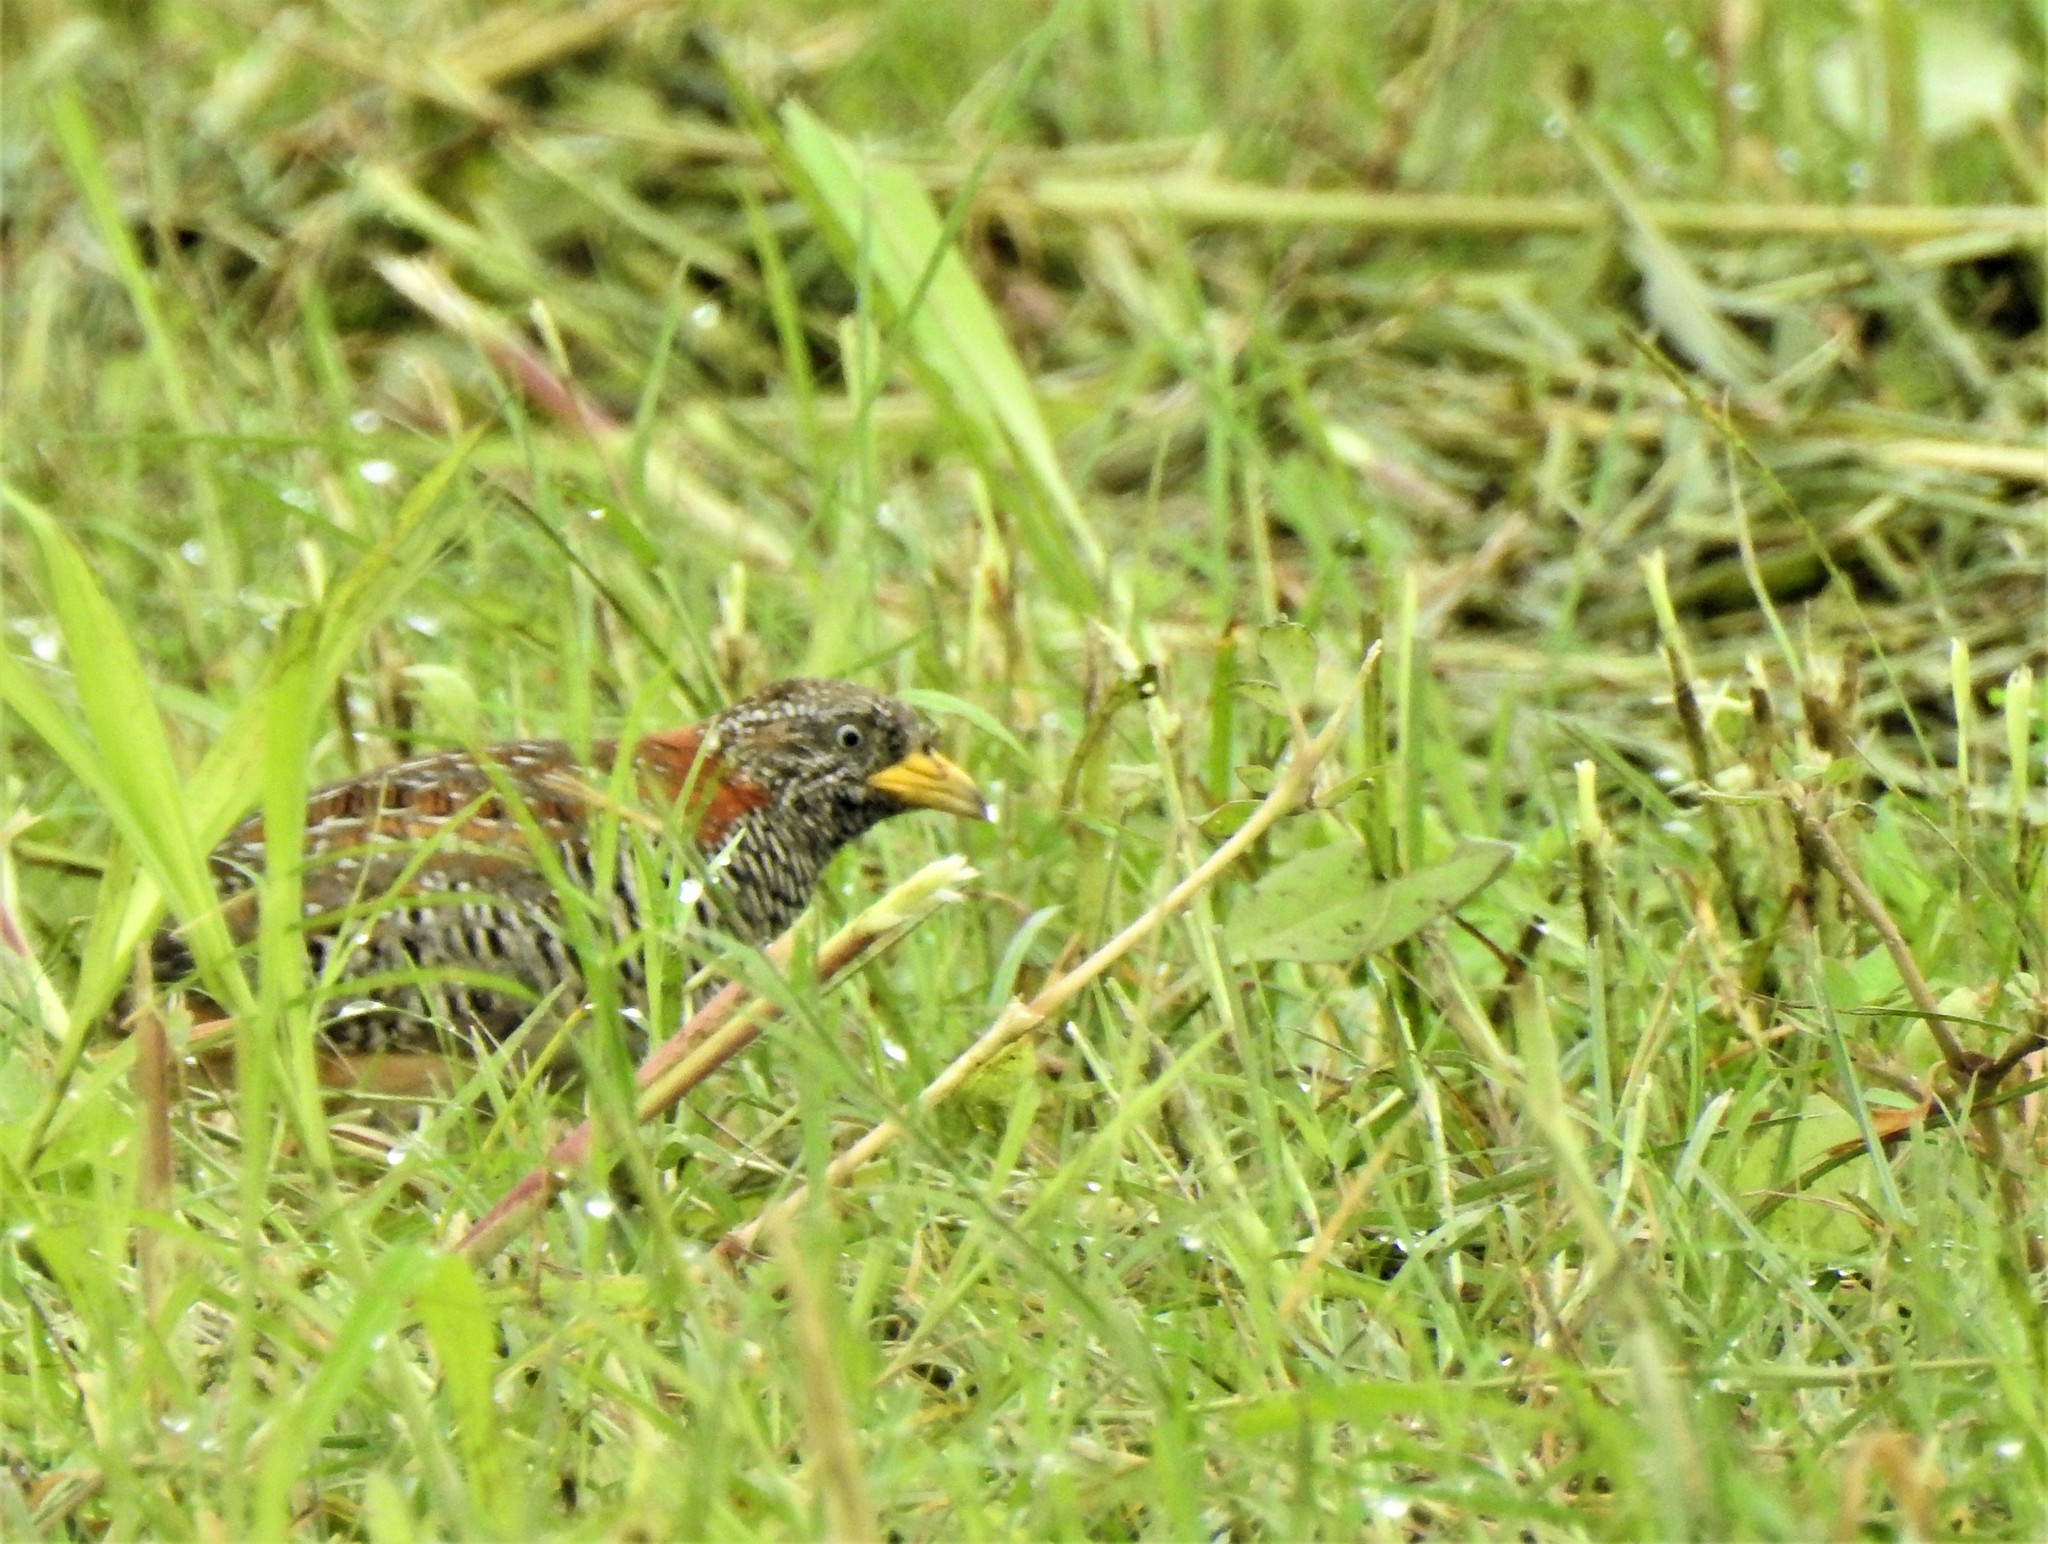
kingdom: Animalia
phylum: Chordata
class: Aves
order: Charadriiformes
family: Turnicidae
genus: Turnix
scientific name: Turnix suscitator
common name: Barred buttonquail
